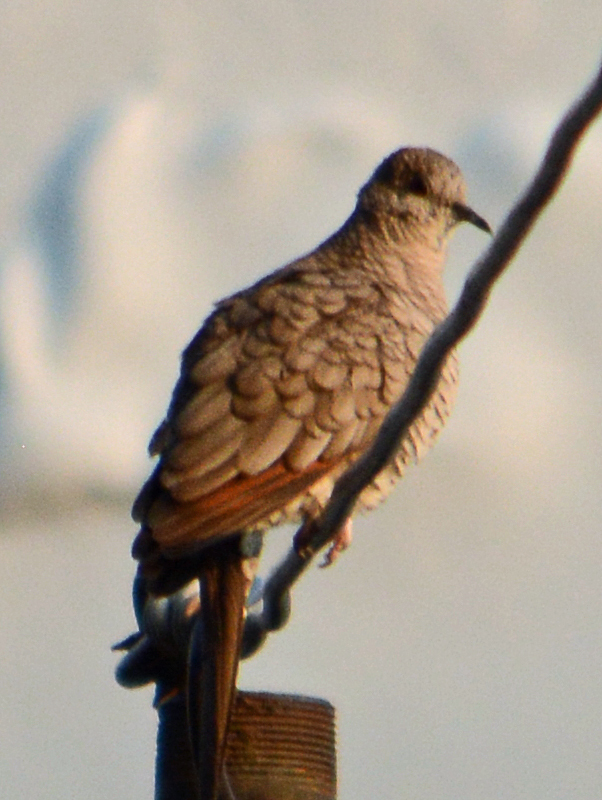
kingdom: Animalia
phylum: Chordata
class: Aves
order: Columbiformes
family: Columbidae
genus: Columbina
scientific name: Columbina inca
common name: Inca dove
